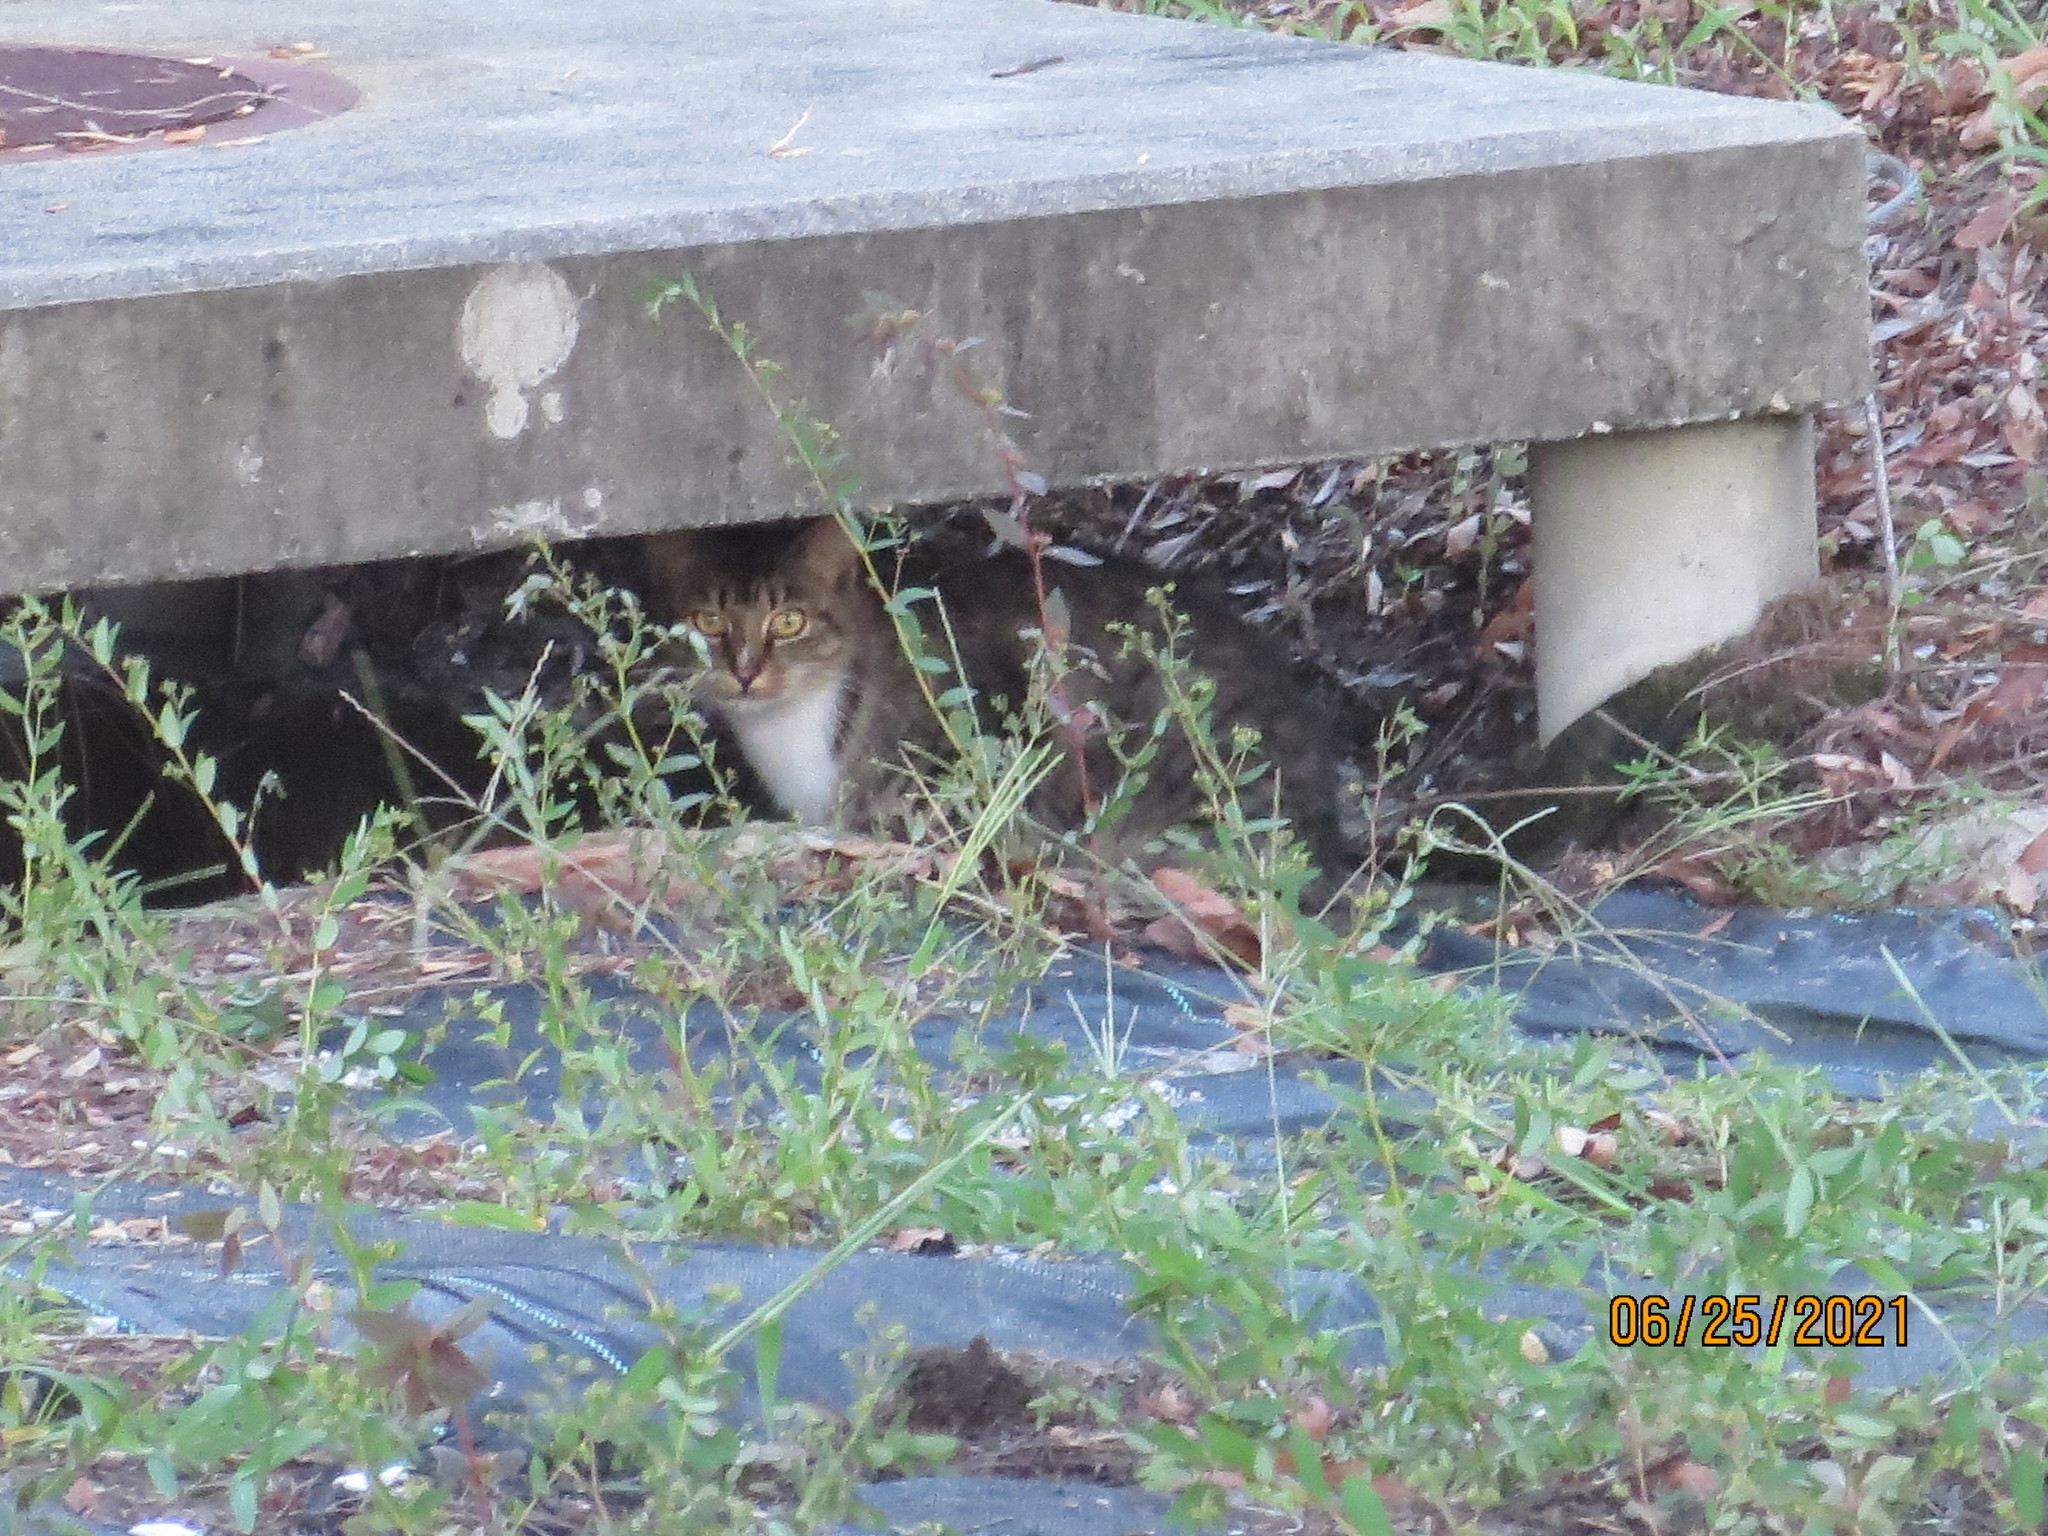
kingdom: Animalia
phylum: Chordata
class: Mammalia
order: Carnivora
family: Felidae
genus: Felis
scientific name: Felis catus
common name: Domestic cat
